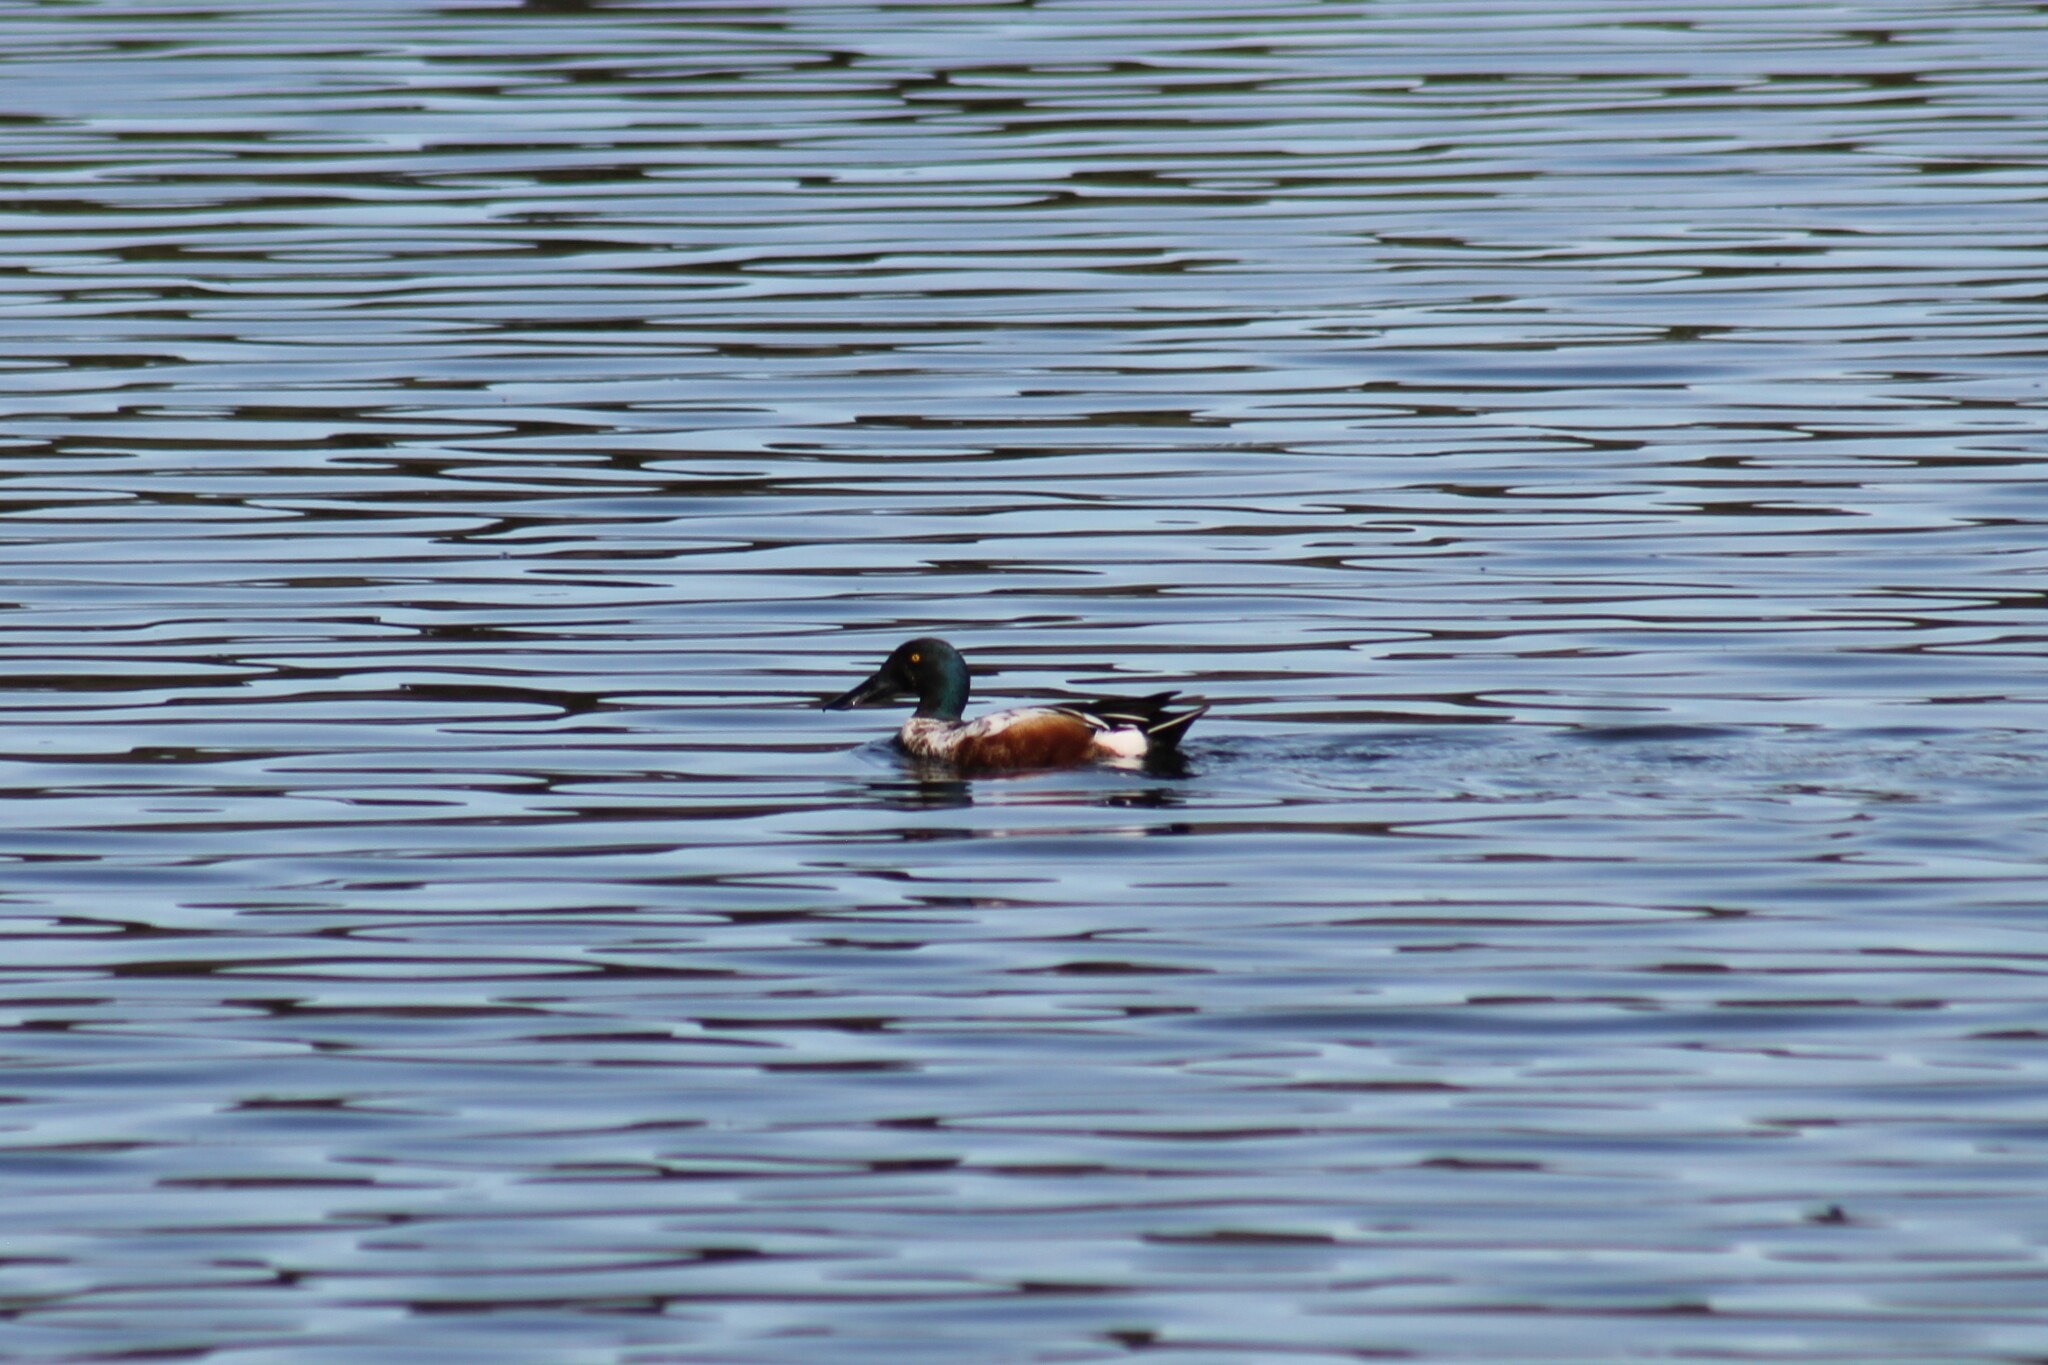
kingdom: Animalia
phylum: Chordata
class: Aves
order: Anseriformes
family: Anatidae
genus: Spatula
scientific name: Spatula clypeata
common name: Northern shoveler
